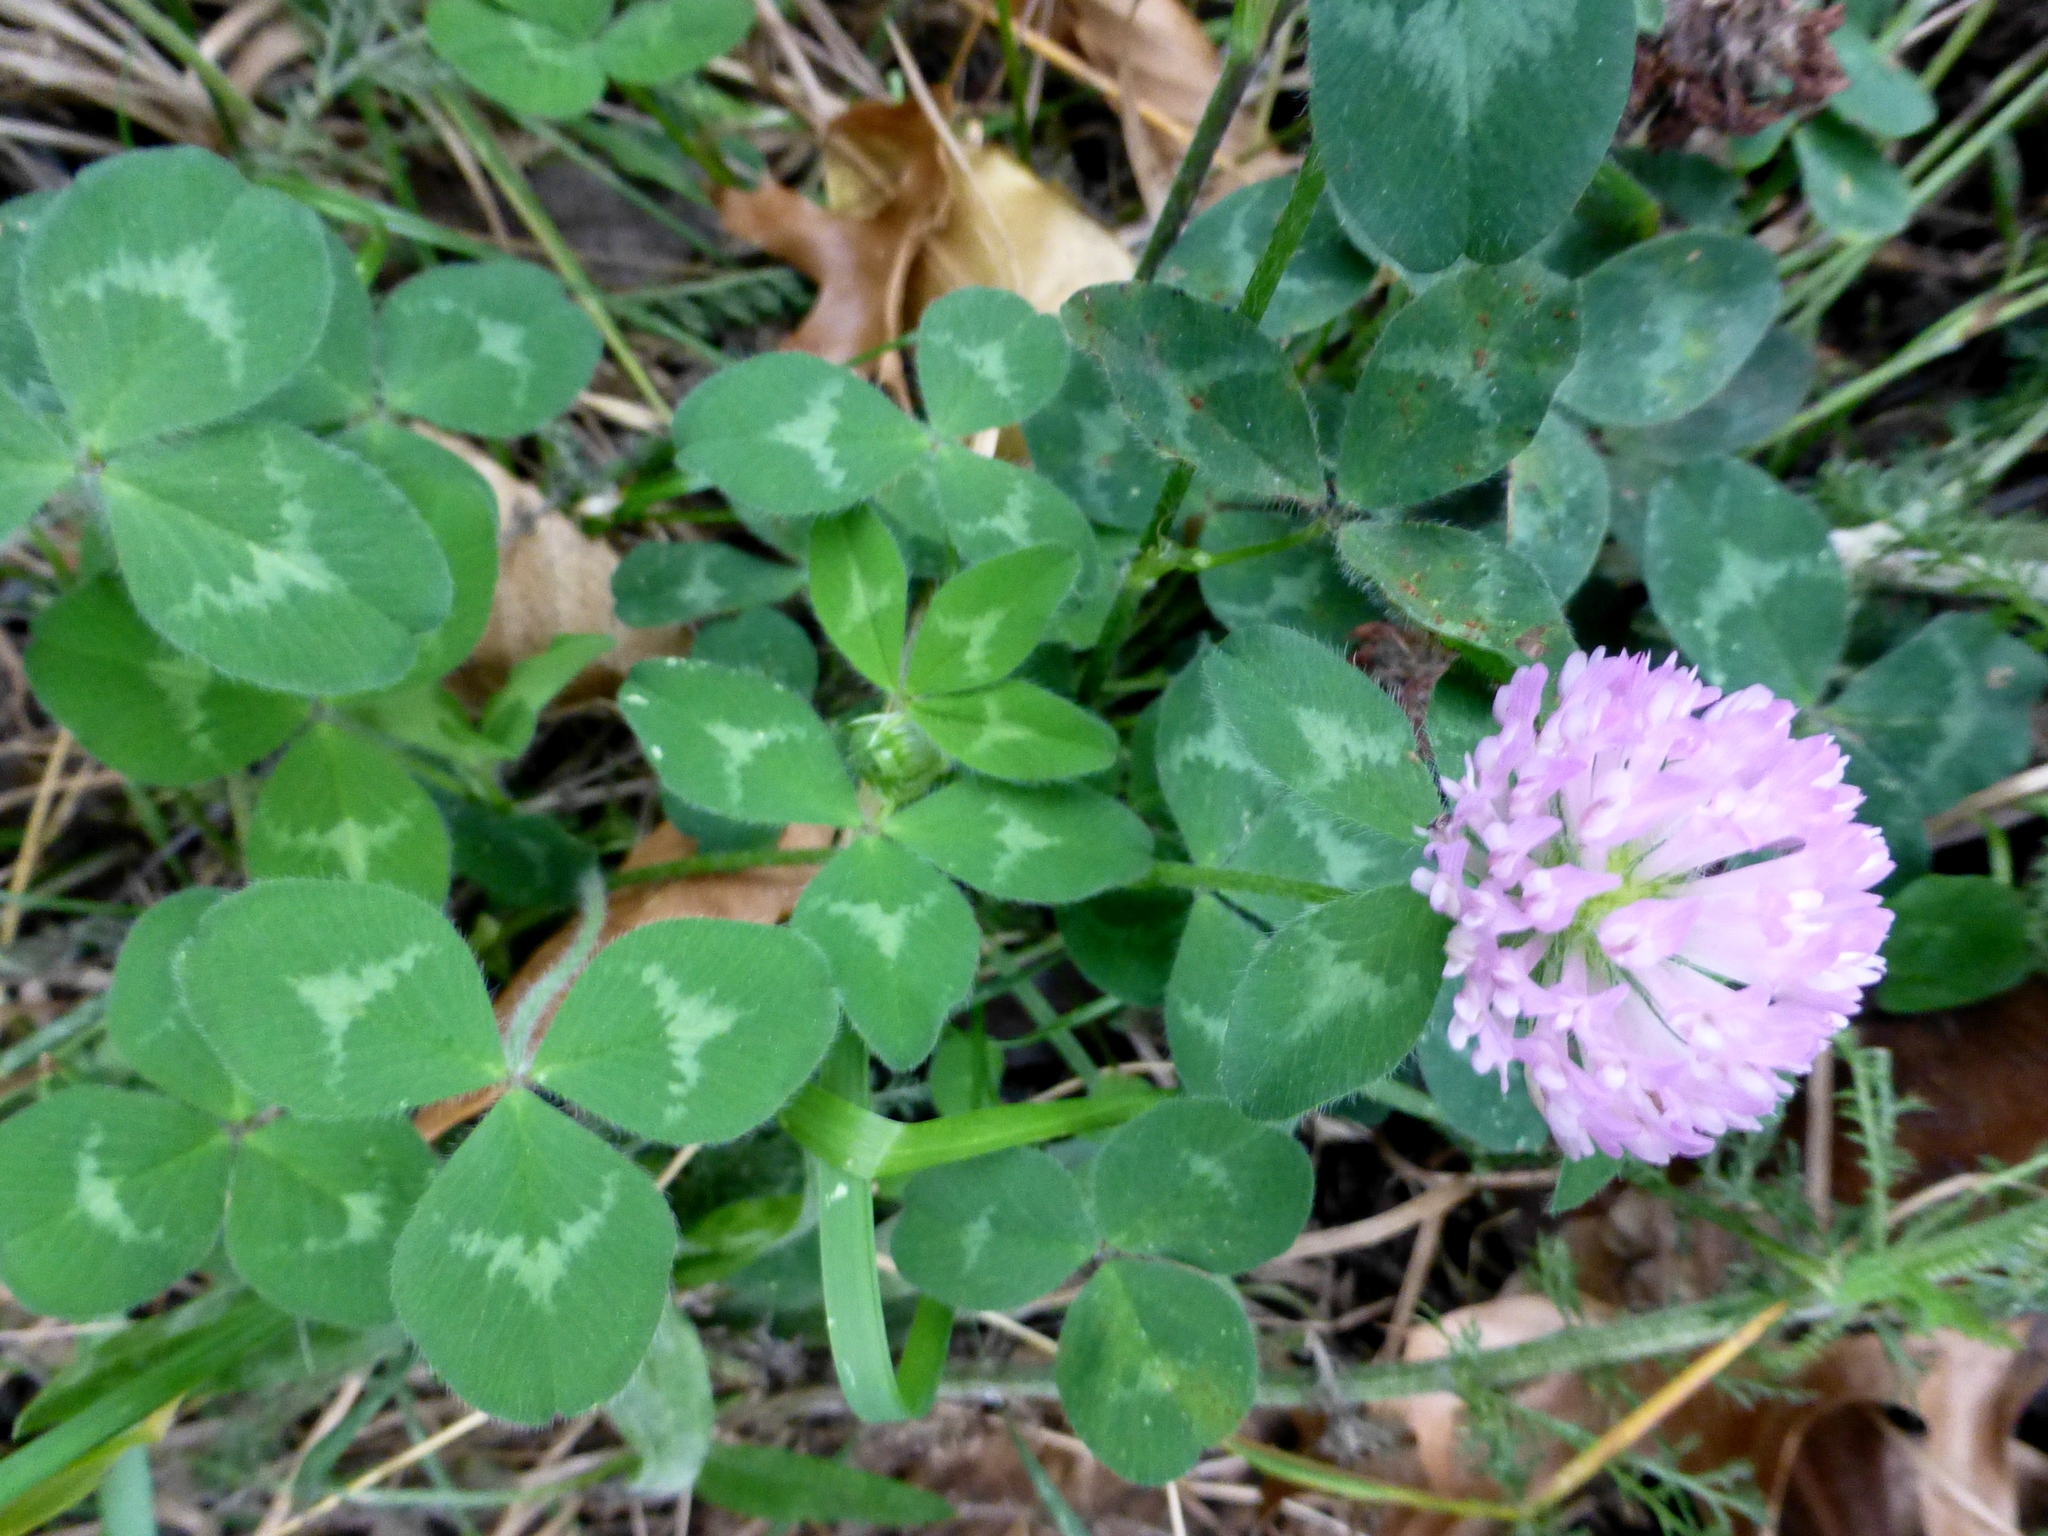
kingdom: Plantae
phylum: Tracheophyta
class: Magnoliopsida
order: Fabales
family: Fabaceae
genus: Trifolium
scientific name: Trifolium pratense
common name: Red clover
